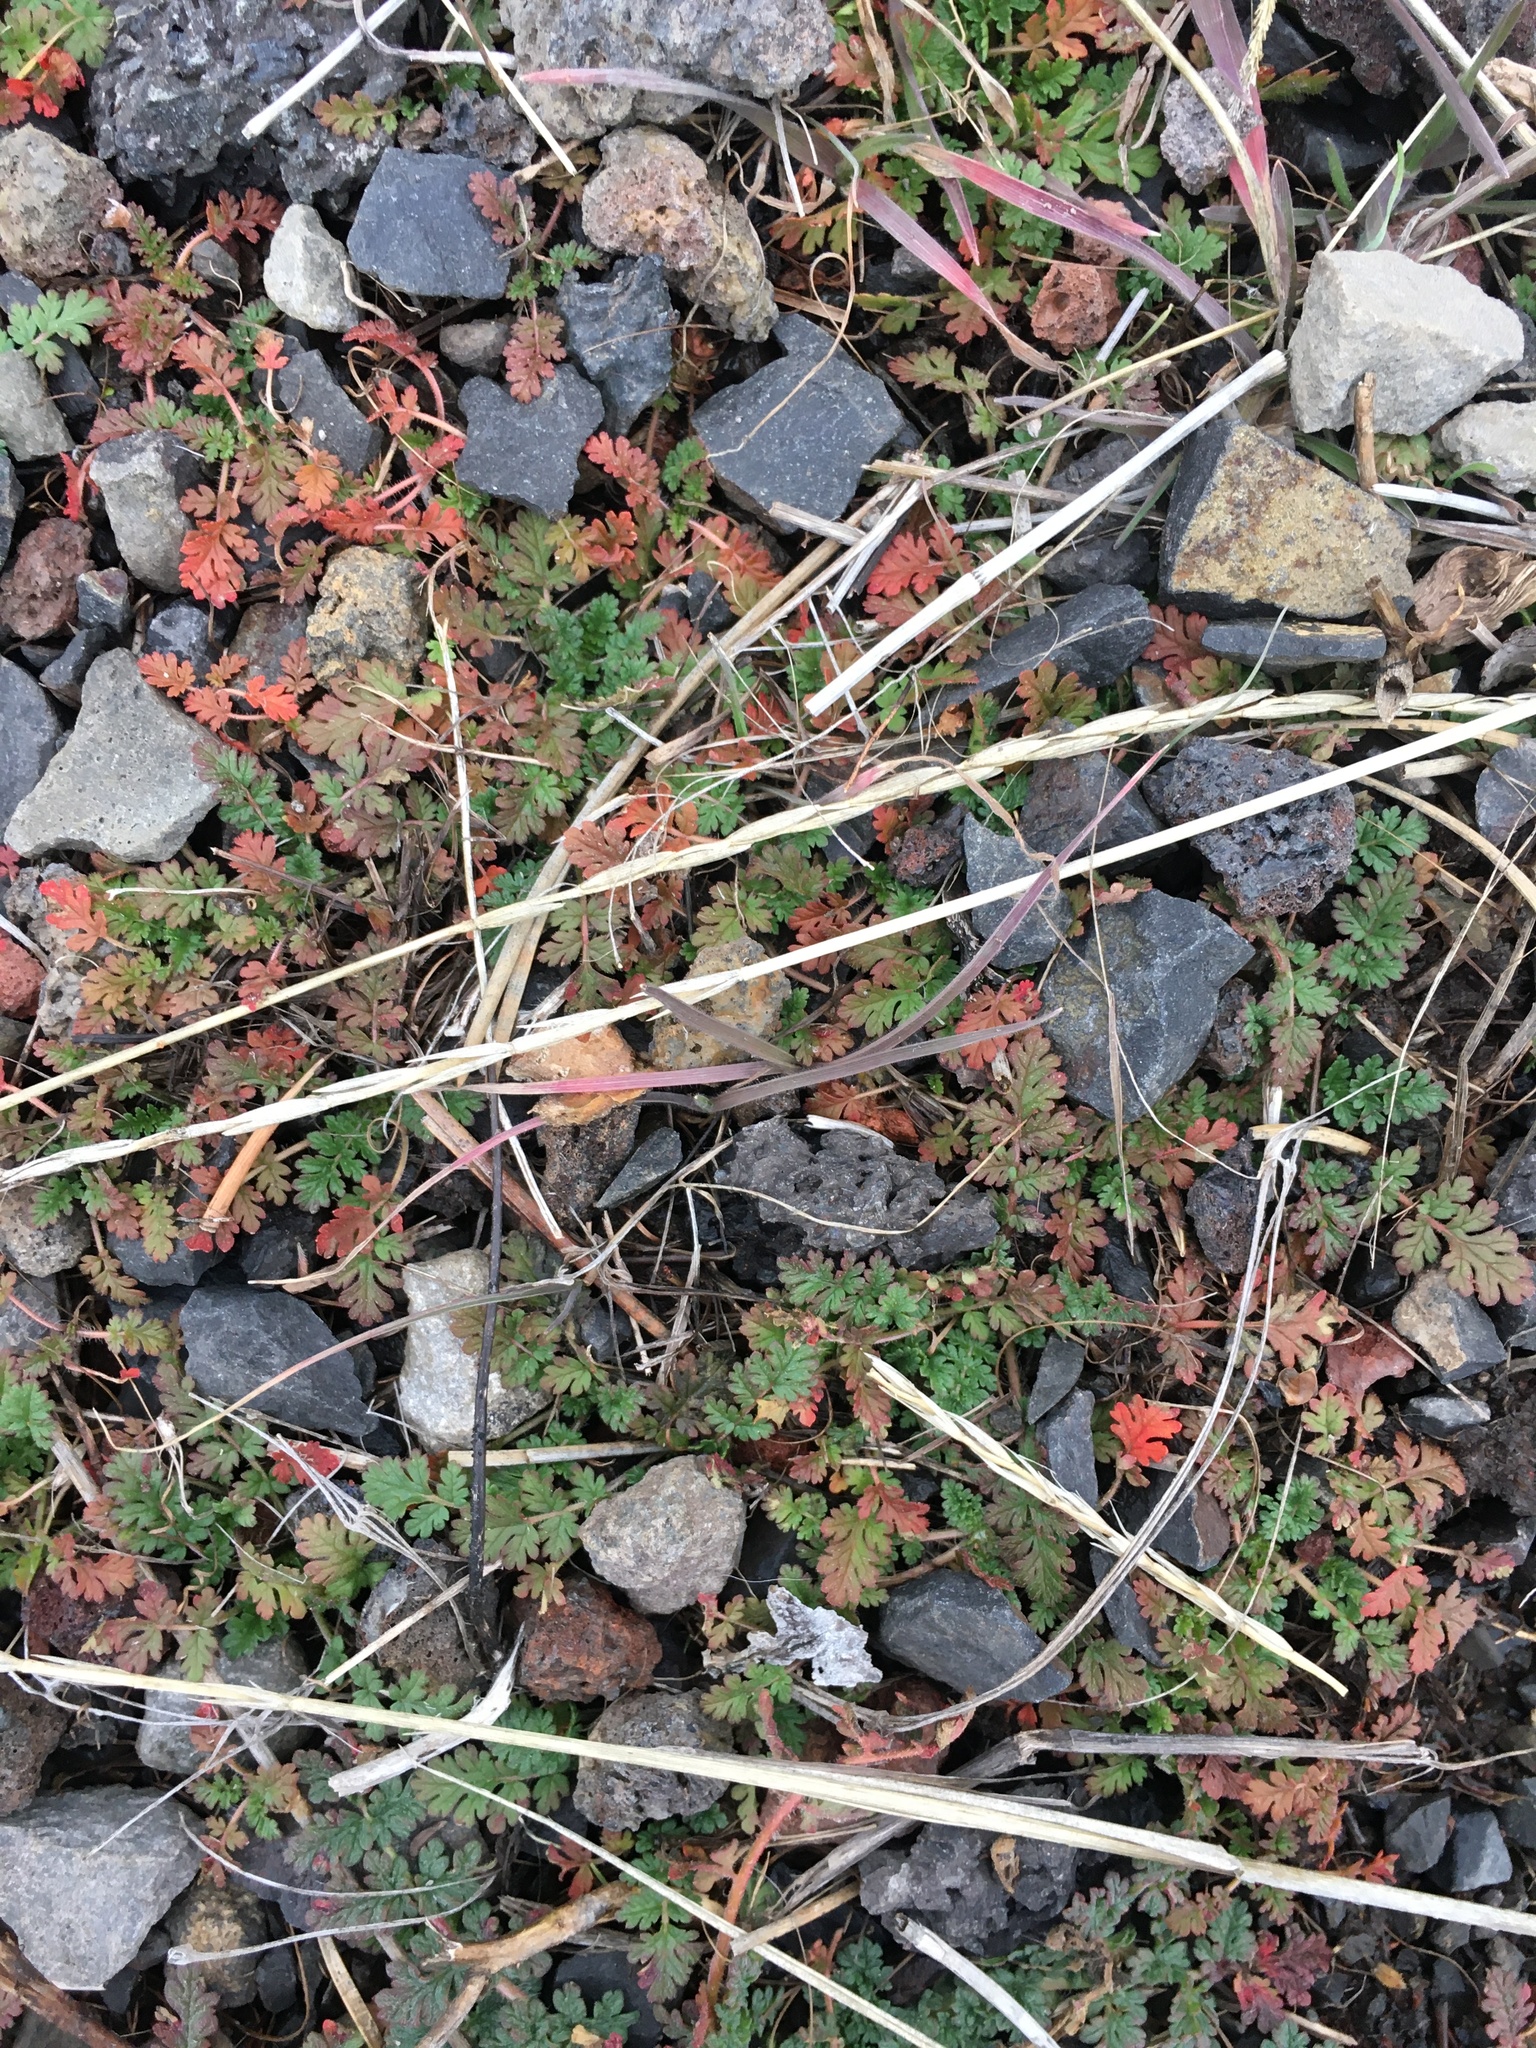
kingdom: Plantae
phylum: Tracheophyta
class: Magnoliopsida
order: Geraniales
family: Geraniaceae
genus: Erodium
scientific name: Erodium cicutarium
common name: Common stork's-bill
